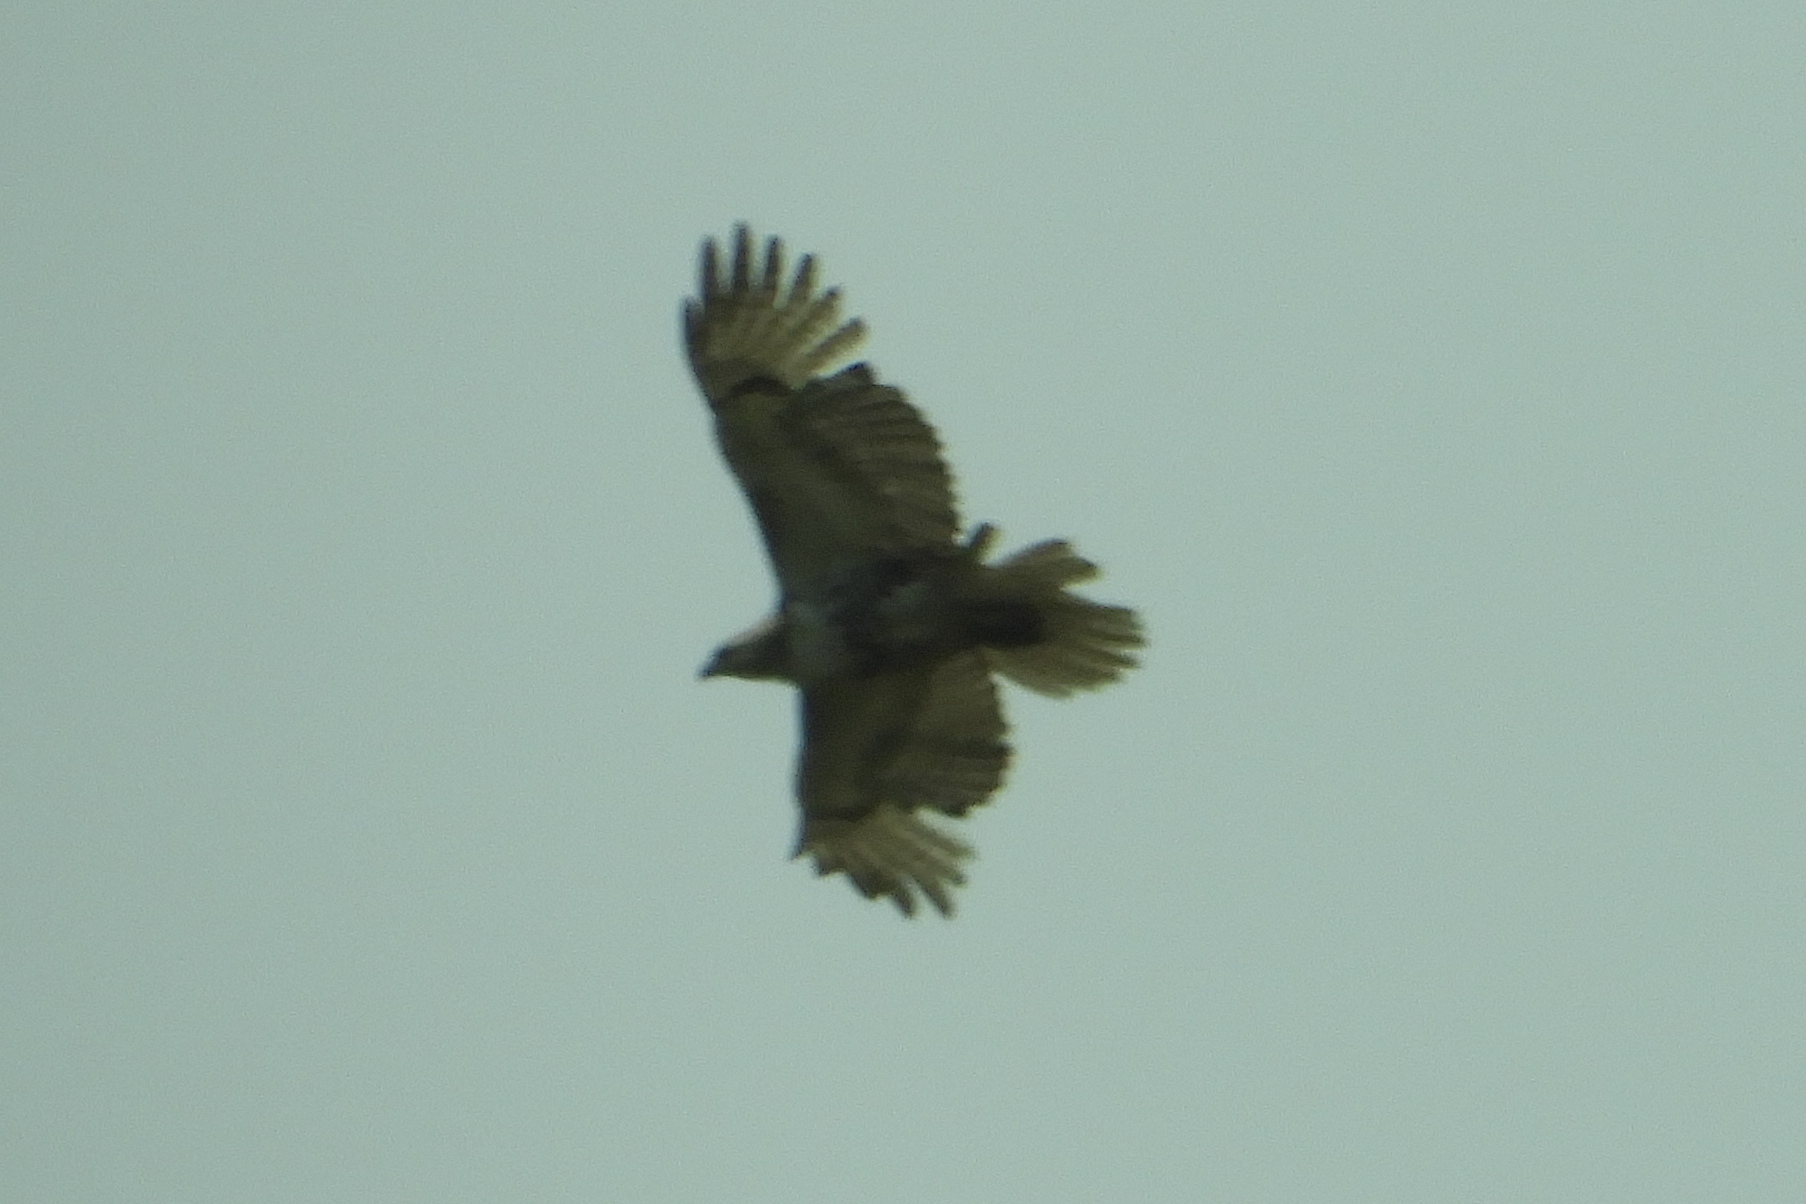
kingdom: Animalia
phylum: Chordata
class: Aves
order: Accipitriformes
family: Accipitridae
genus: Buteo
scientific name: Buteo jamaicensis
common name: Red-tailed hawk
